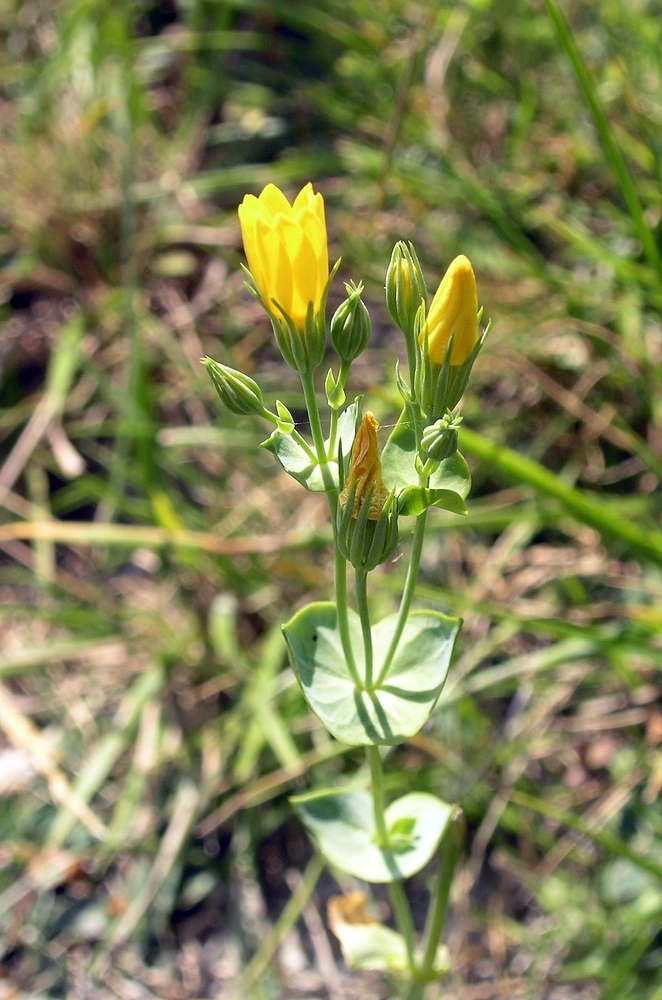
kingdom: Plantae
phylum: Tracheophyta
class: Magnoliopsida
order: Gentianales
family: Gentianaceae
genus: Blackstonia
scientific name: Blackstonia perfoliata
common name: Yellow-wort
